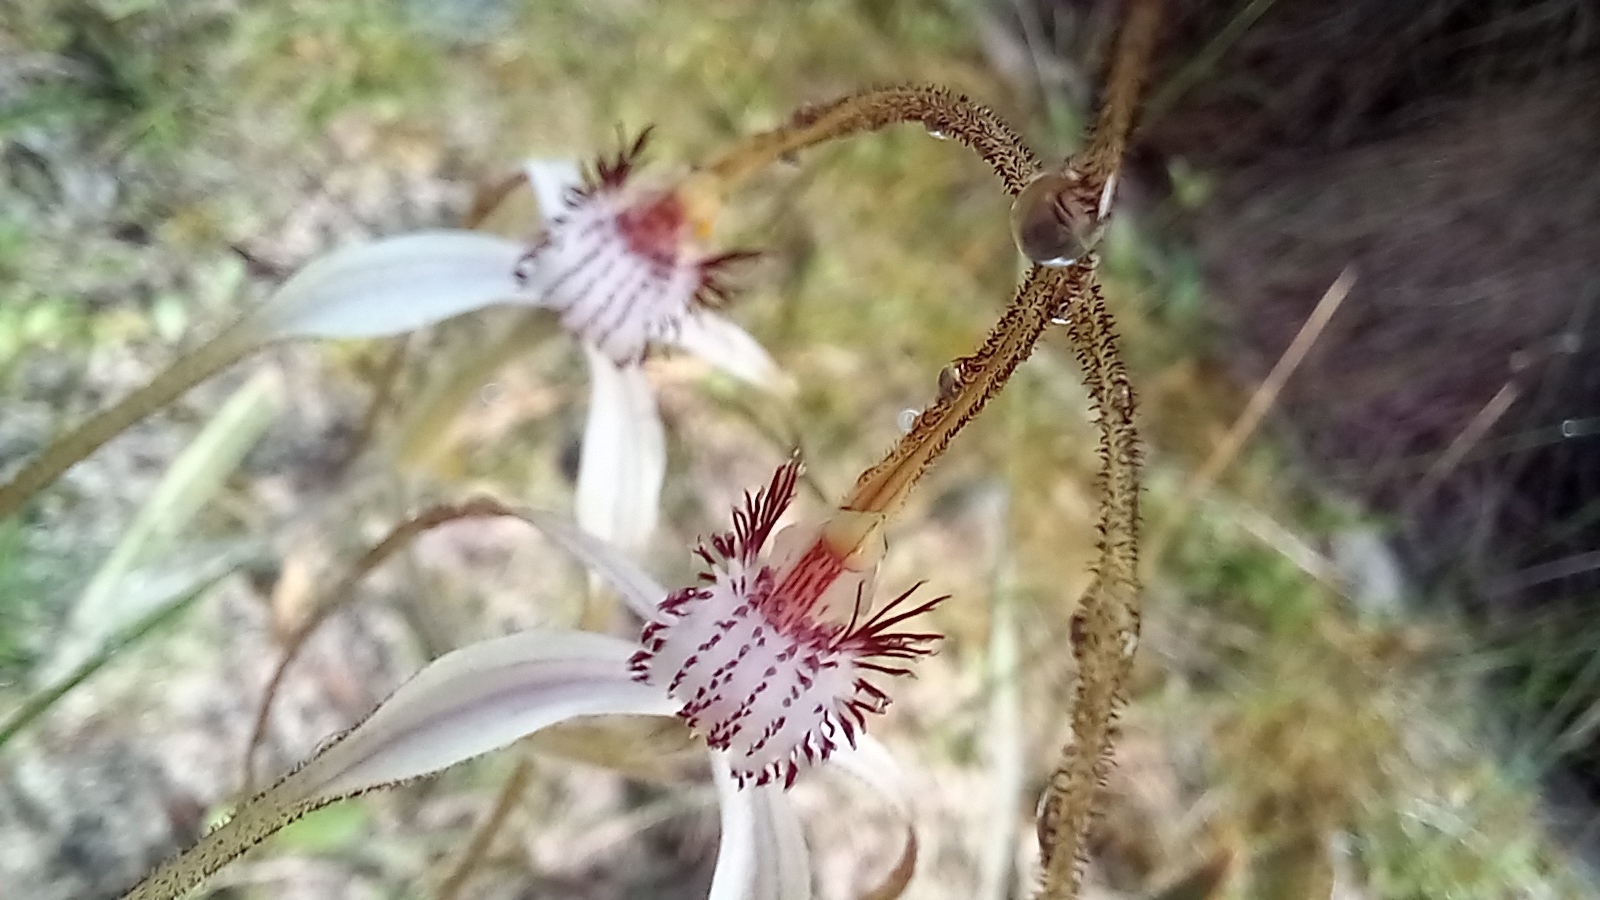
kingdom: Plantae
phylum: Tracheophyta
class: Liliopsida
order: Asparagales
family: Orchidaceae
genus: Caladenia
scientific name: Caladenia longicauda
